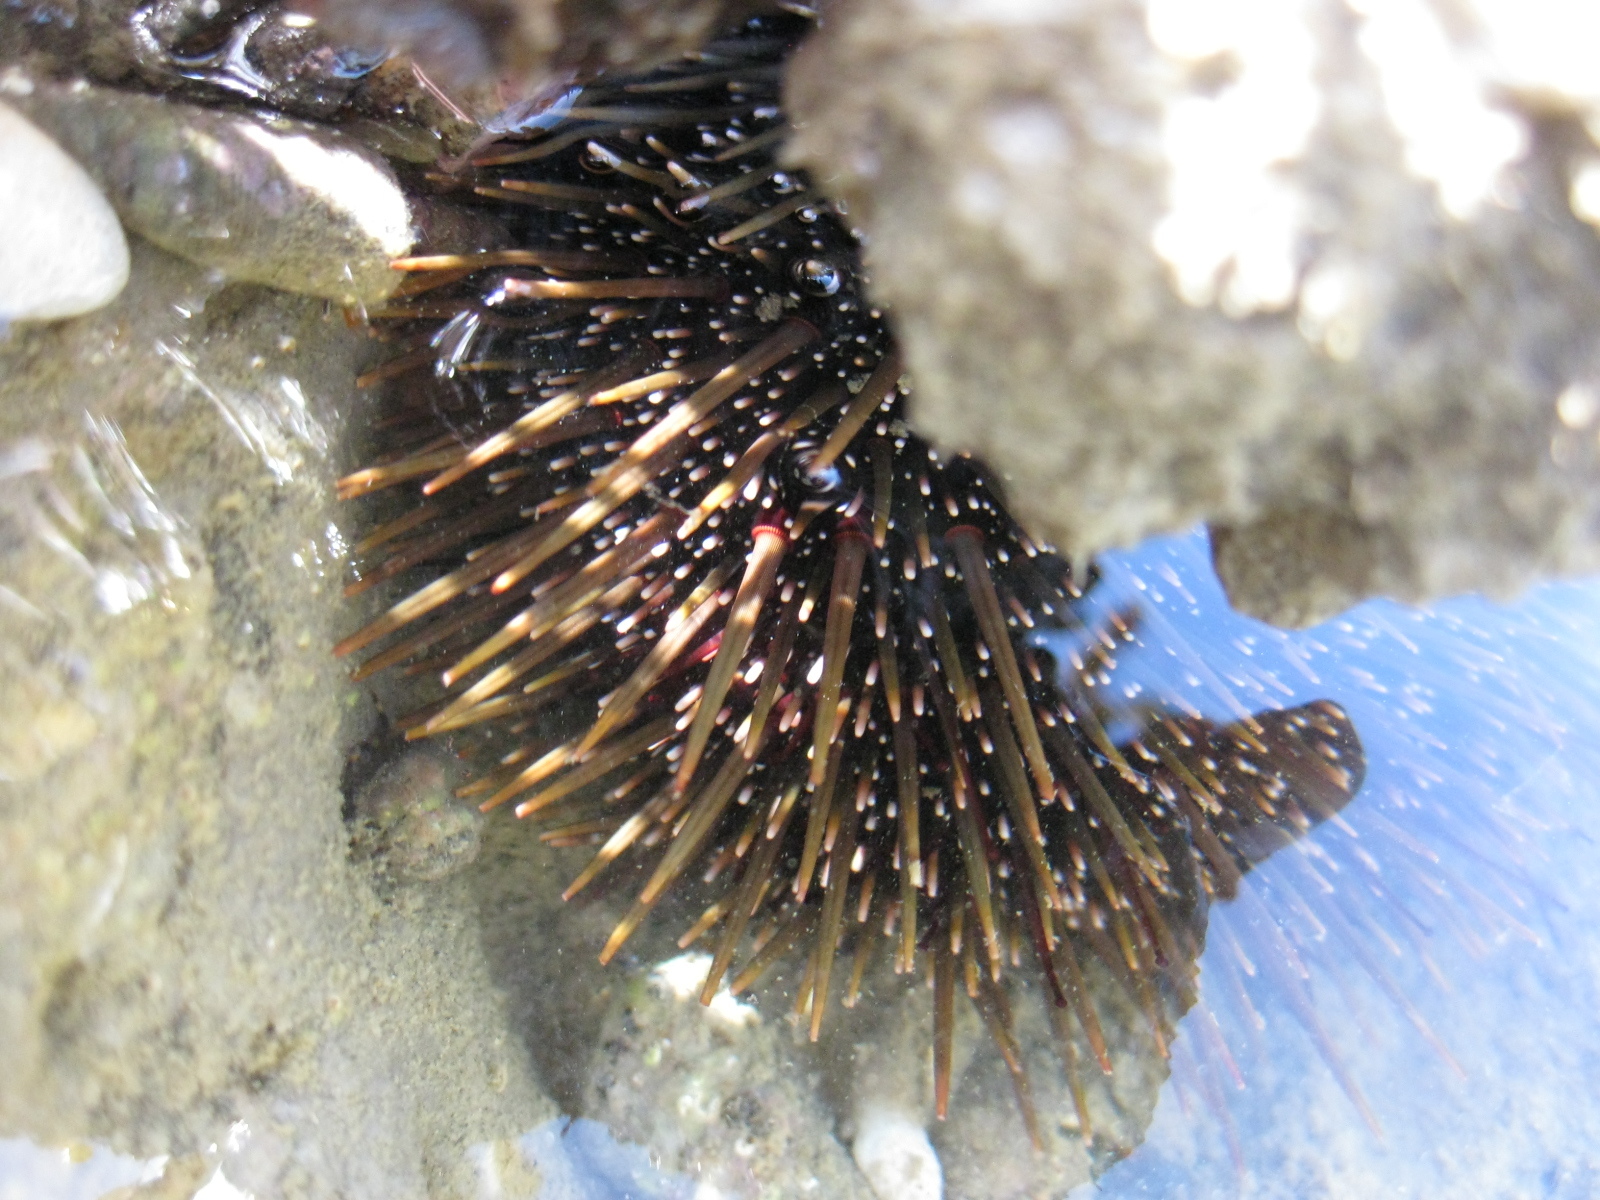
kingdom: Animalia
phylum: Echinodermata
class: Echinoidea
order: Camarodonta
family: Echinometridae
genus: Evechinus
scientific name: Evechinus chloroticus
